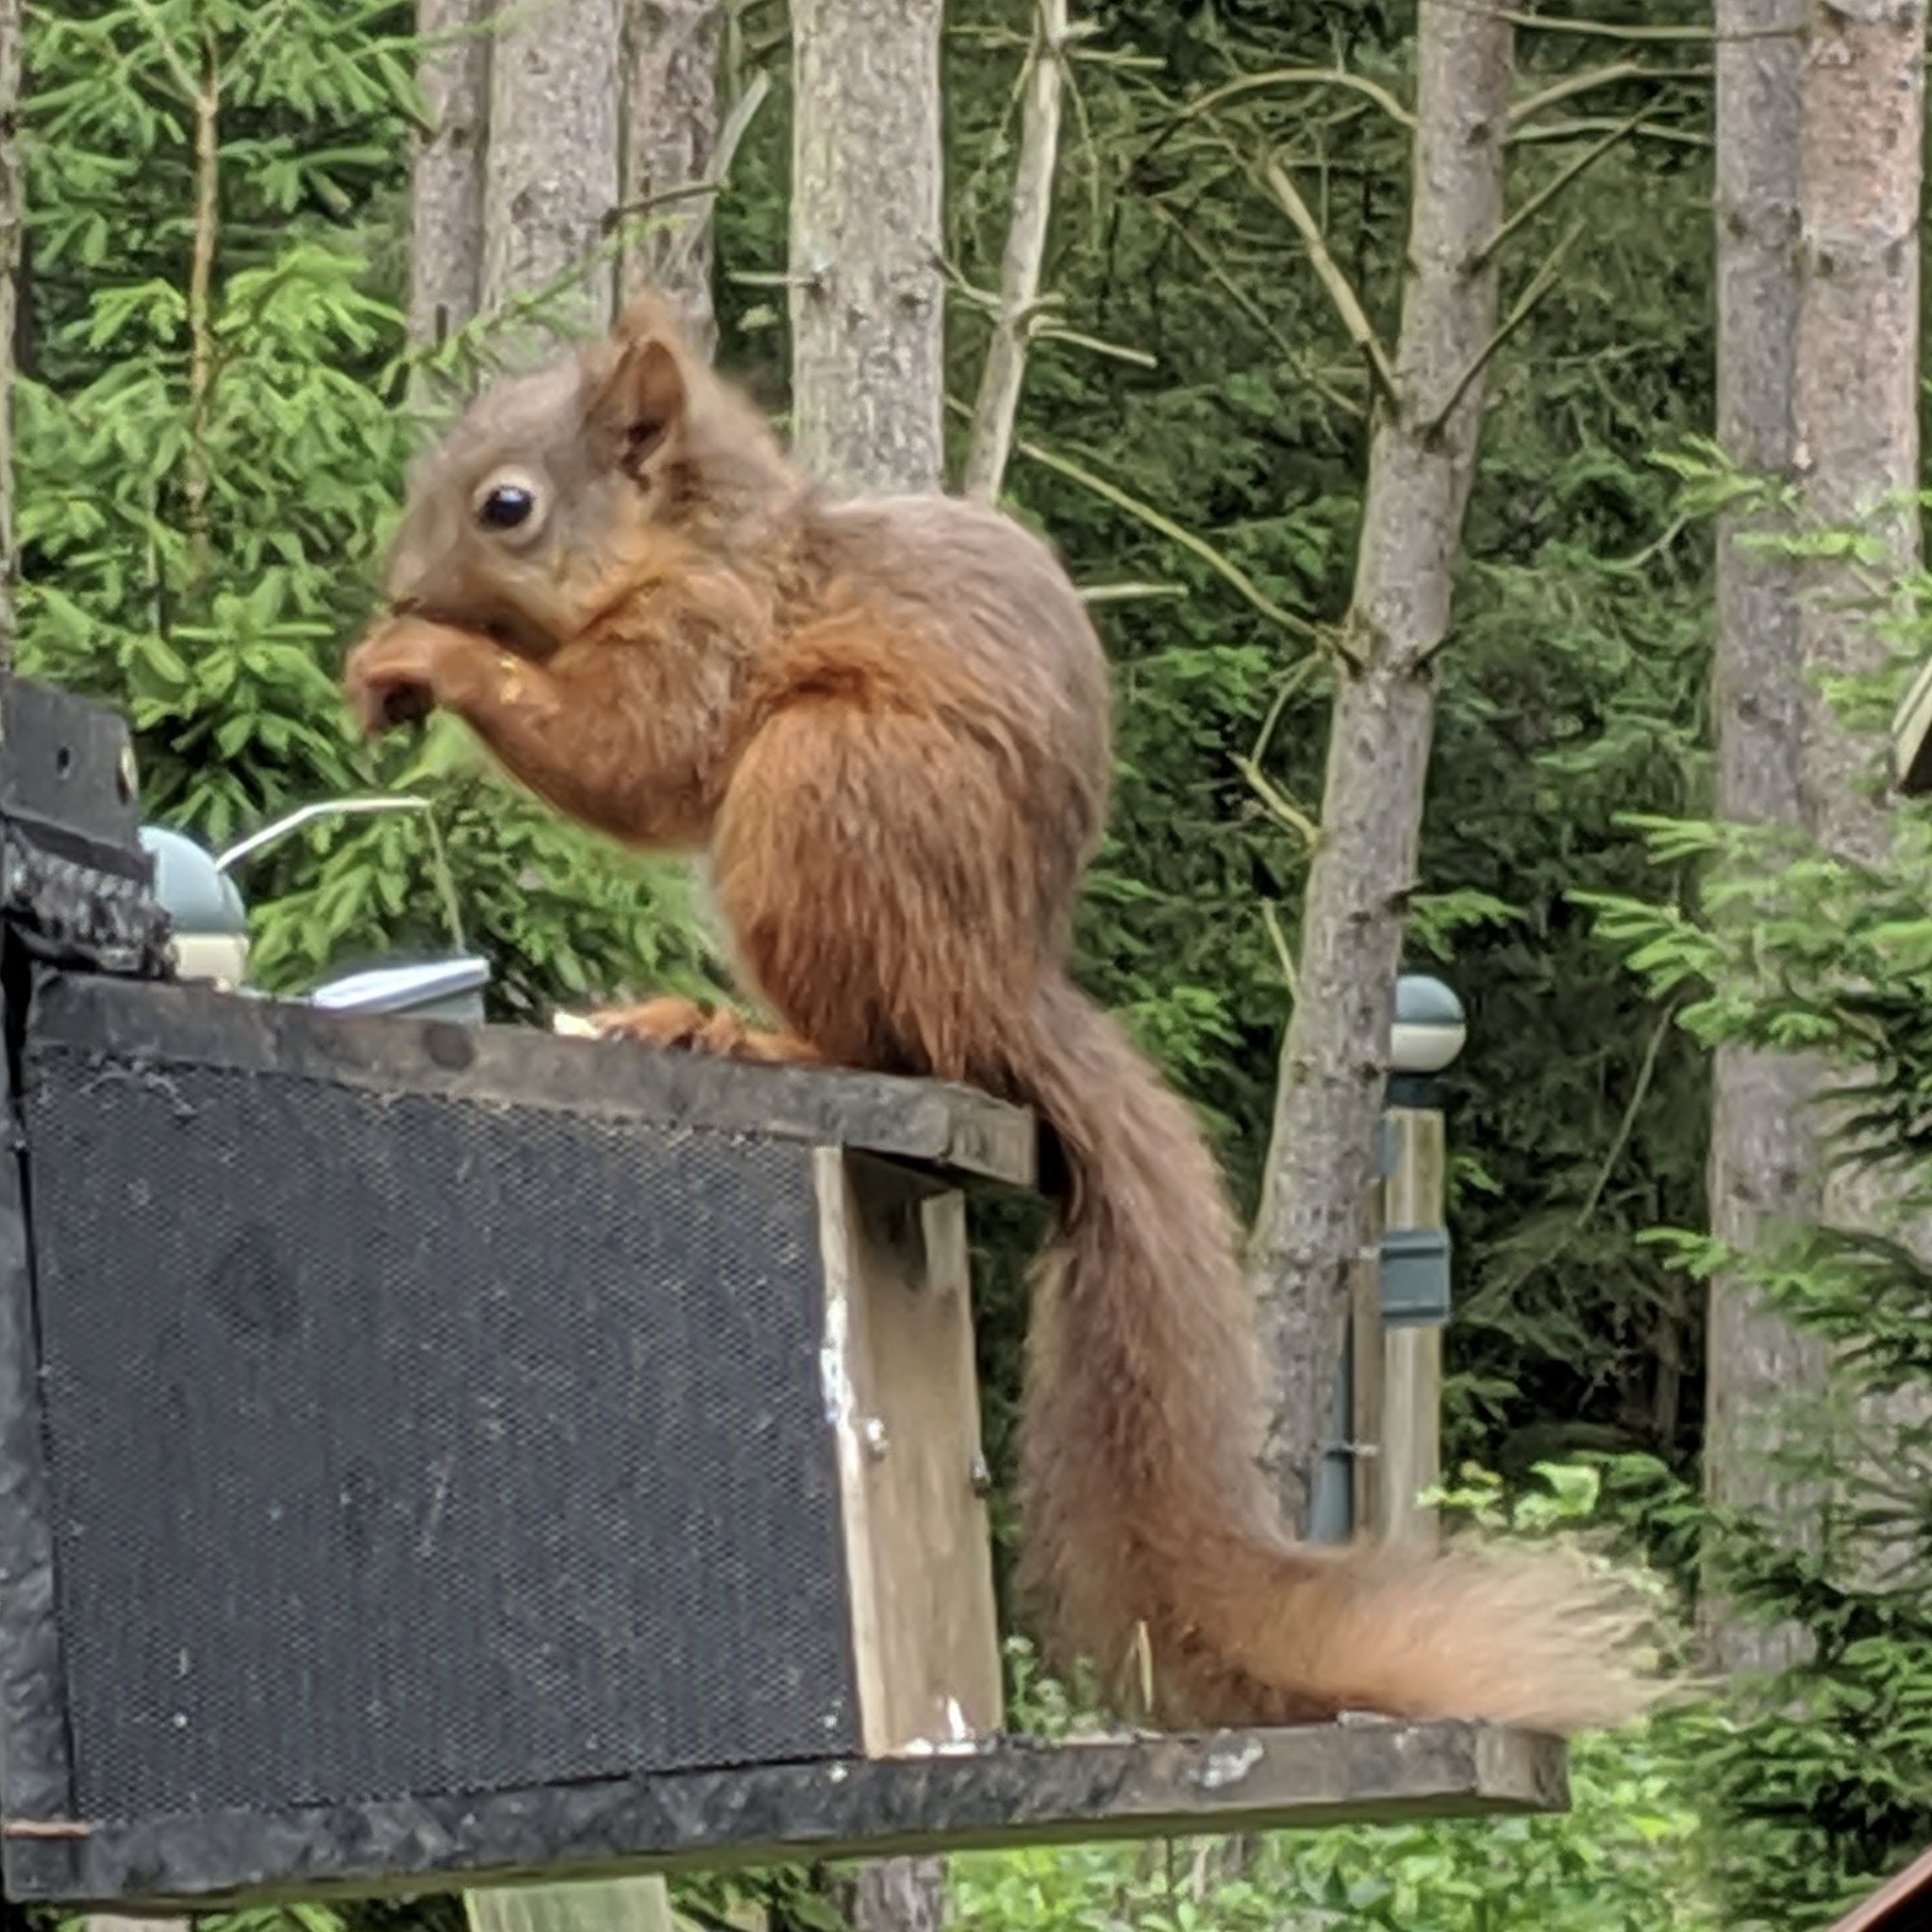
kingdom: Animalia
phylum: Chordata
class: Mammalia
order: Rodentia
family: Sciuridae
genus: Sciurus
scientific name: Sciurus vulgaris
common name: Eurasian red squirrel
